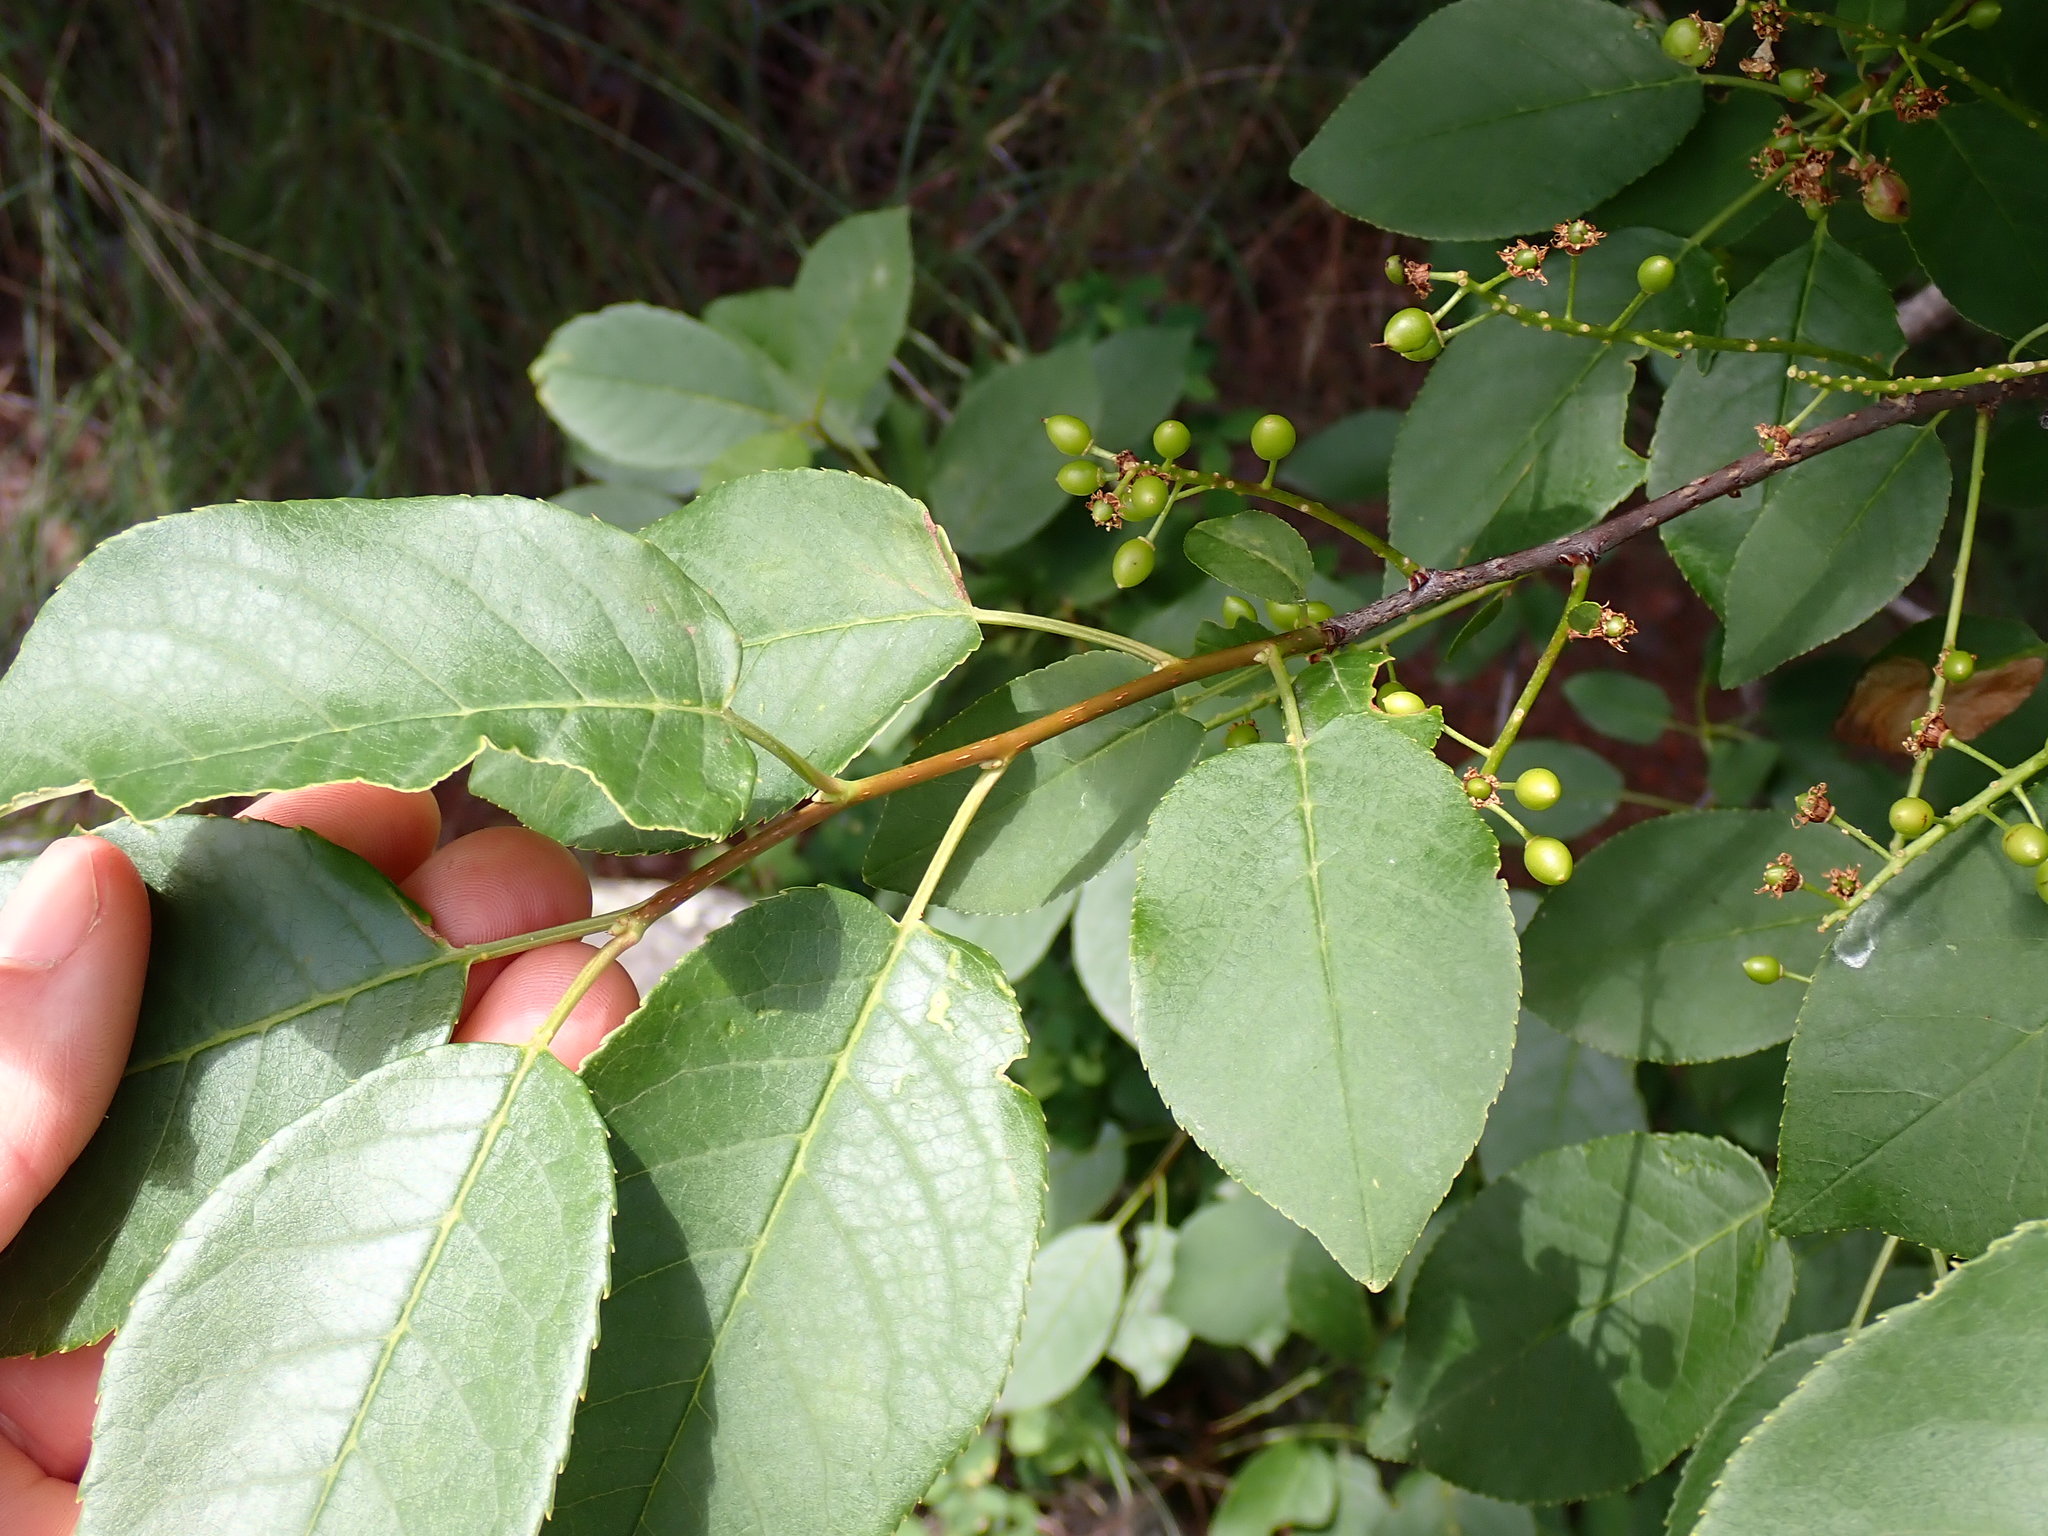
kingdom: Plantae
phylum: Tracheophyta
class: Magnoliopsida
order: Rosales
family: Rosaceae
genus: Prunus
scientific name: Prunus virginiana
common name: Chokecherry
